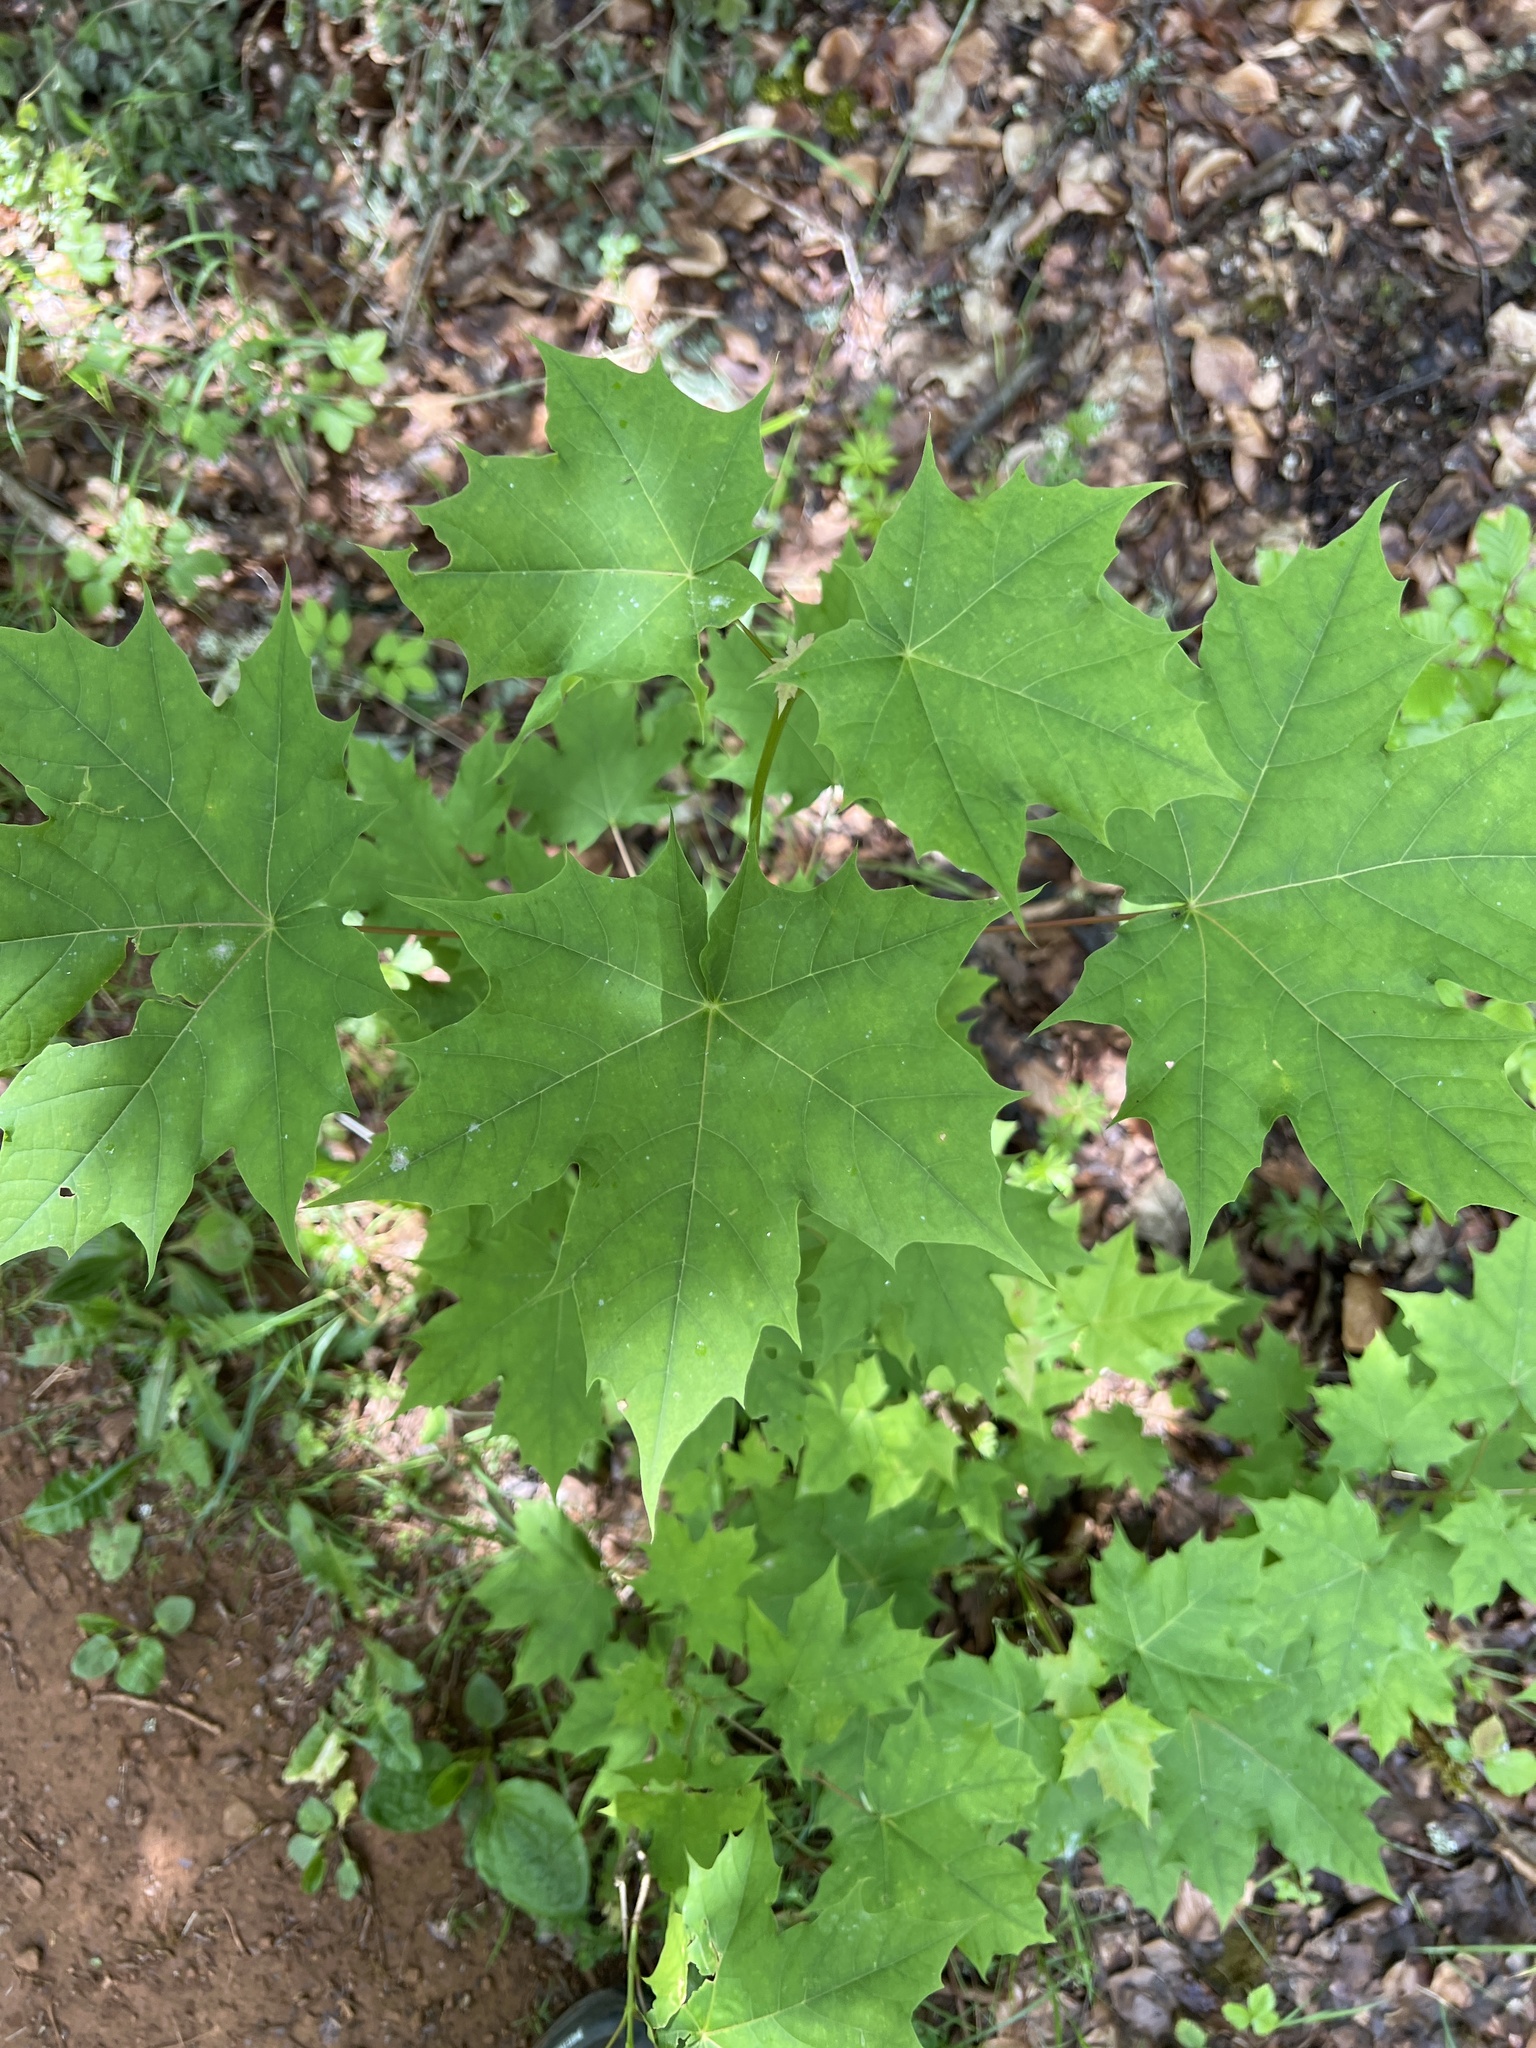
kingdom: Plantae
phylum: Tracheophyta
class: Magnoliopsida
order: Sapindales
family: Sapindaceae
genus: Acer
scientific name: Acer platanoides
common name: Norway maple
